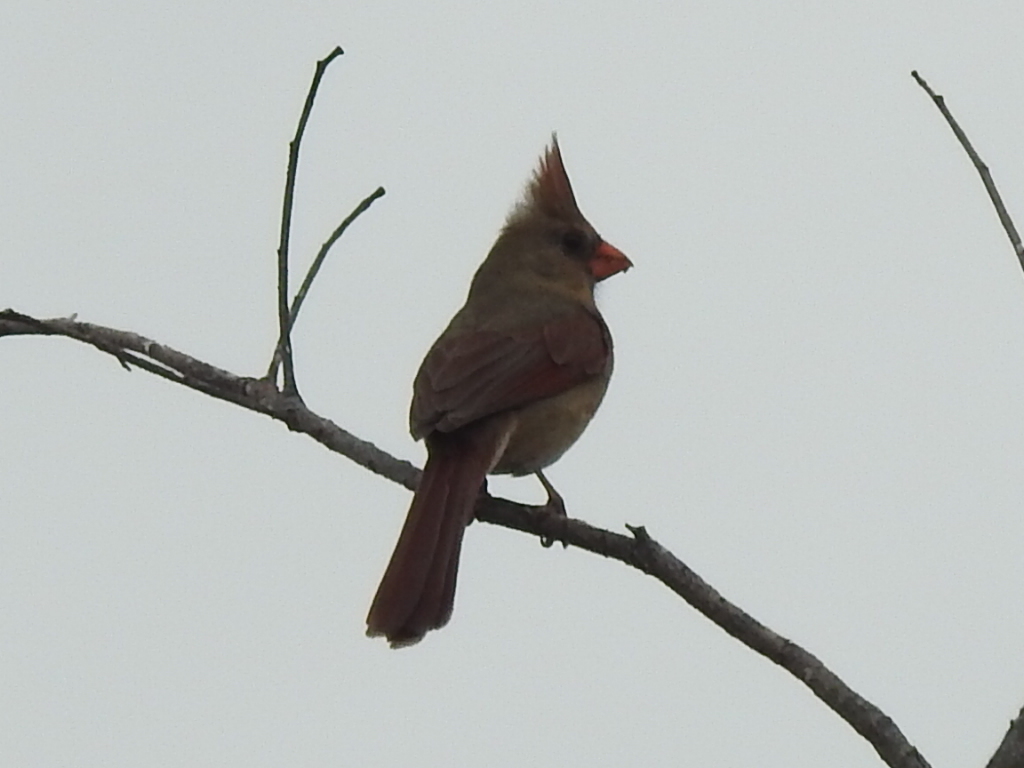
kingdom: Animalia
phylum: Chordata
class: Aves
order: Passeriformes
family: Cardinalidae
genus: Cardinalis
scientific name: Cardinalis cardinalis
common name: Northern cardinal
